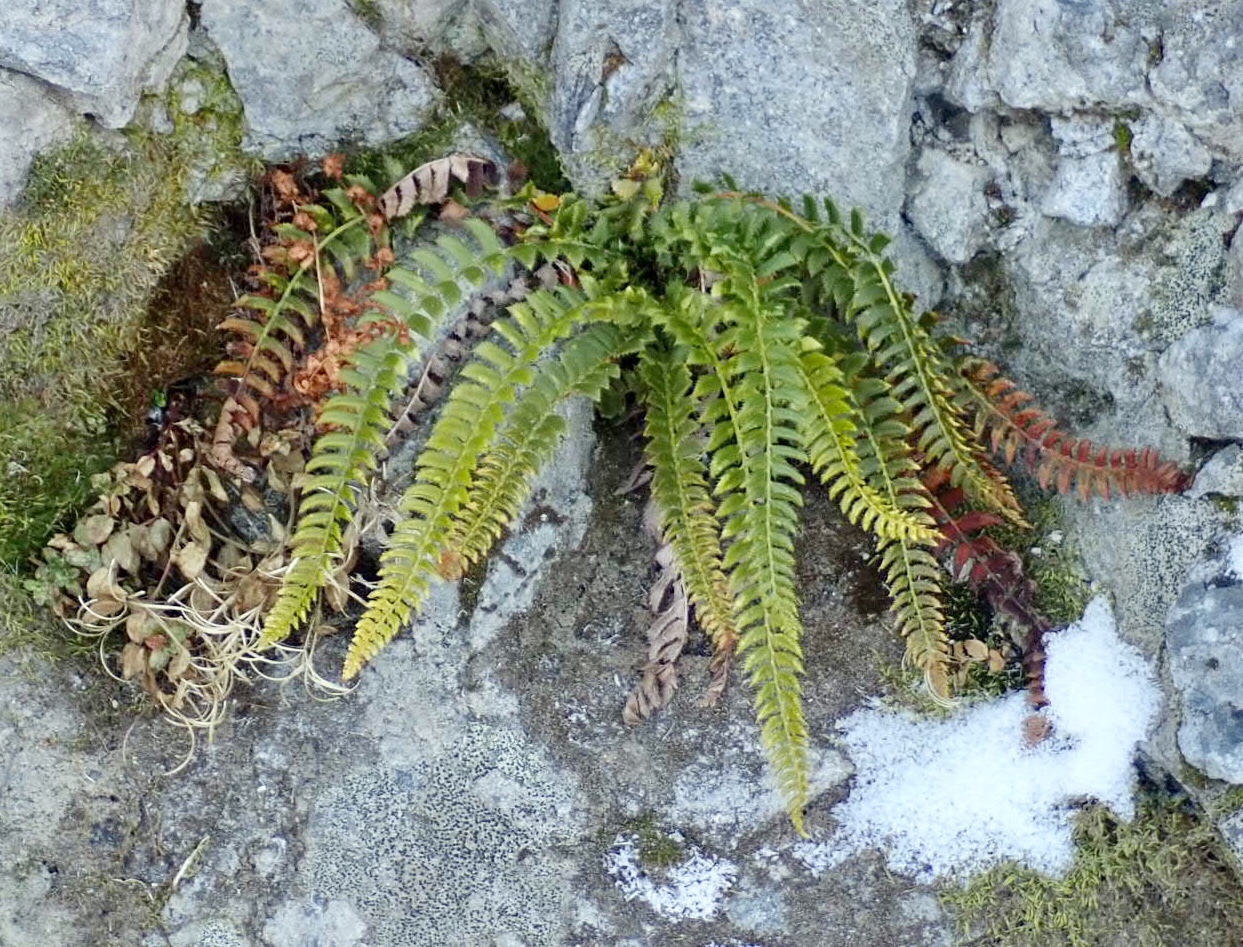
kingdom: Plantae
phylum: Tracheophyta
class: Polypodiopsida
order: Polypodiales
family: Dryopteridaceae
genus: Polystichum
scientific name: Polystichum lonchitis
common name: Holly fern
